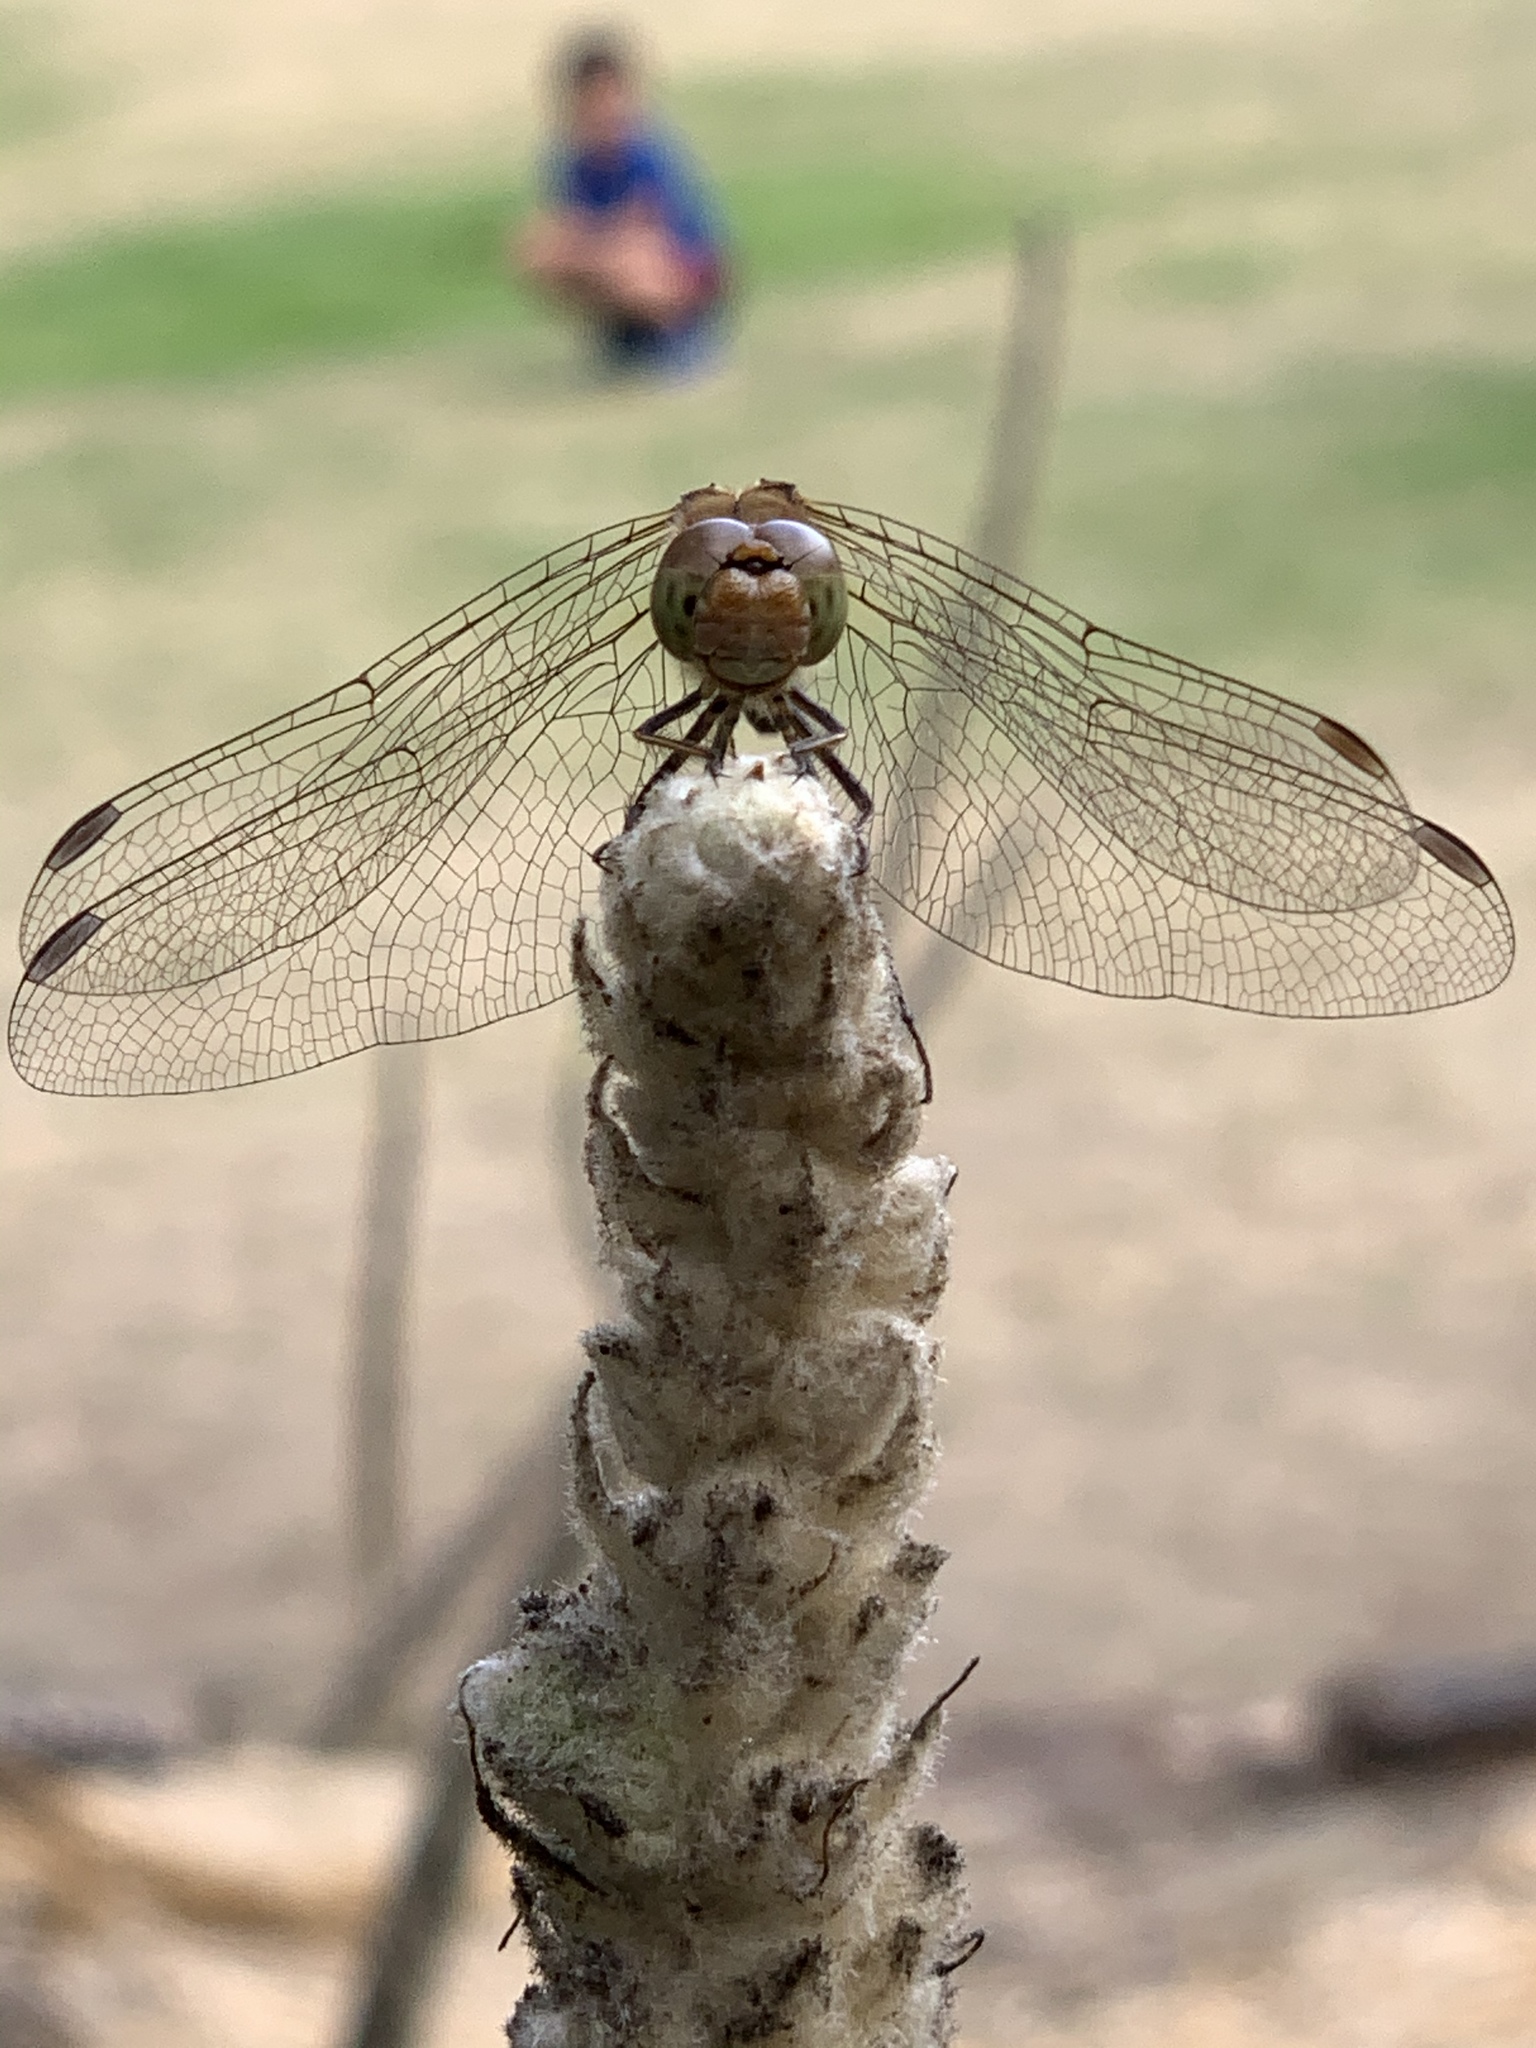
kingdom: Animalia
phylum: Arthropoda
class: Insecta
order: Odonata
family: Libellulidae
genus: Sympetrum
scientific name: Sympetrum striolatum
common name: Common darter
